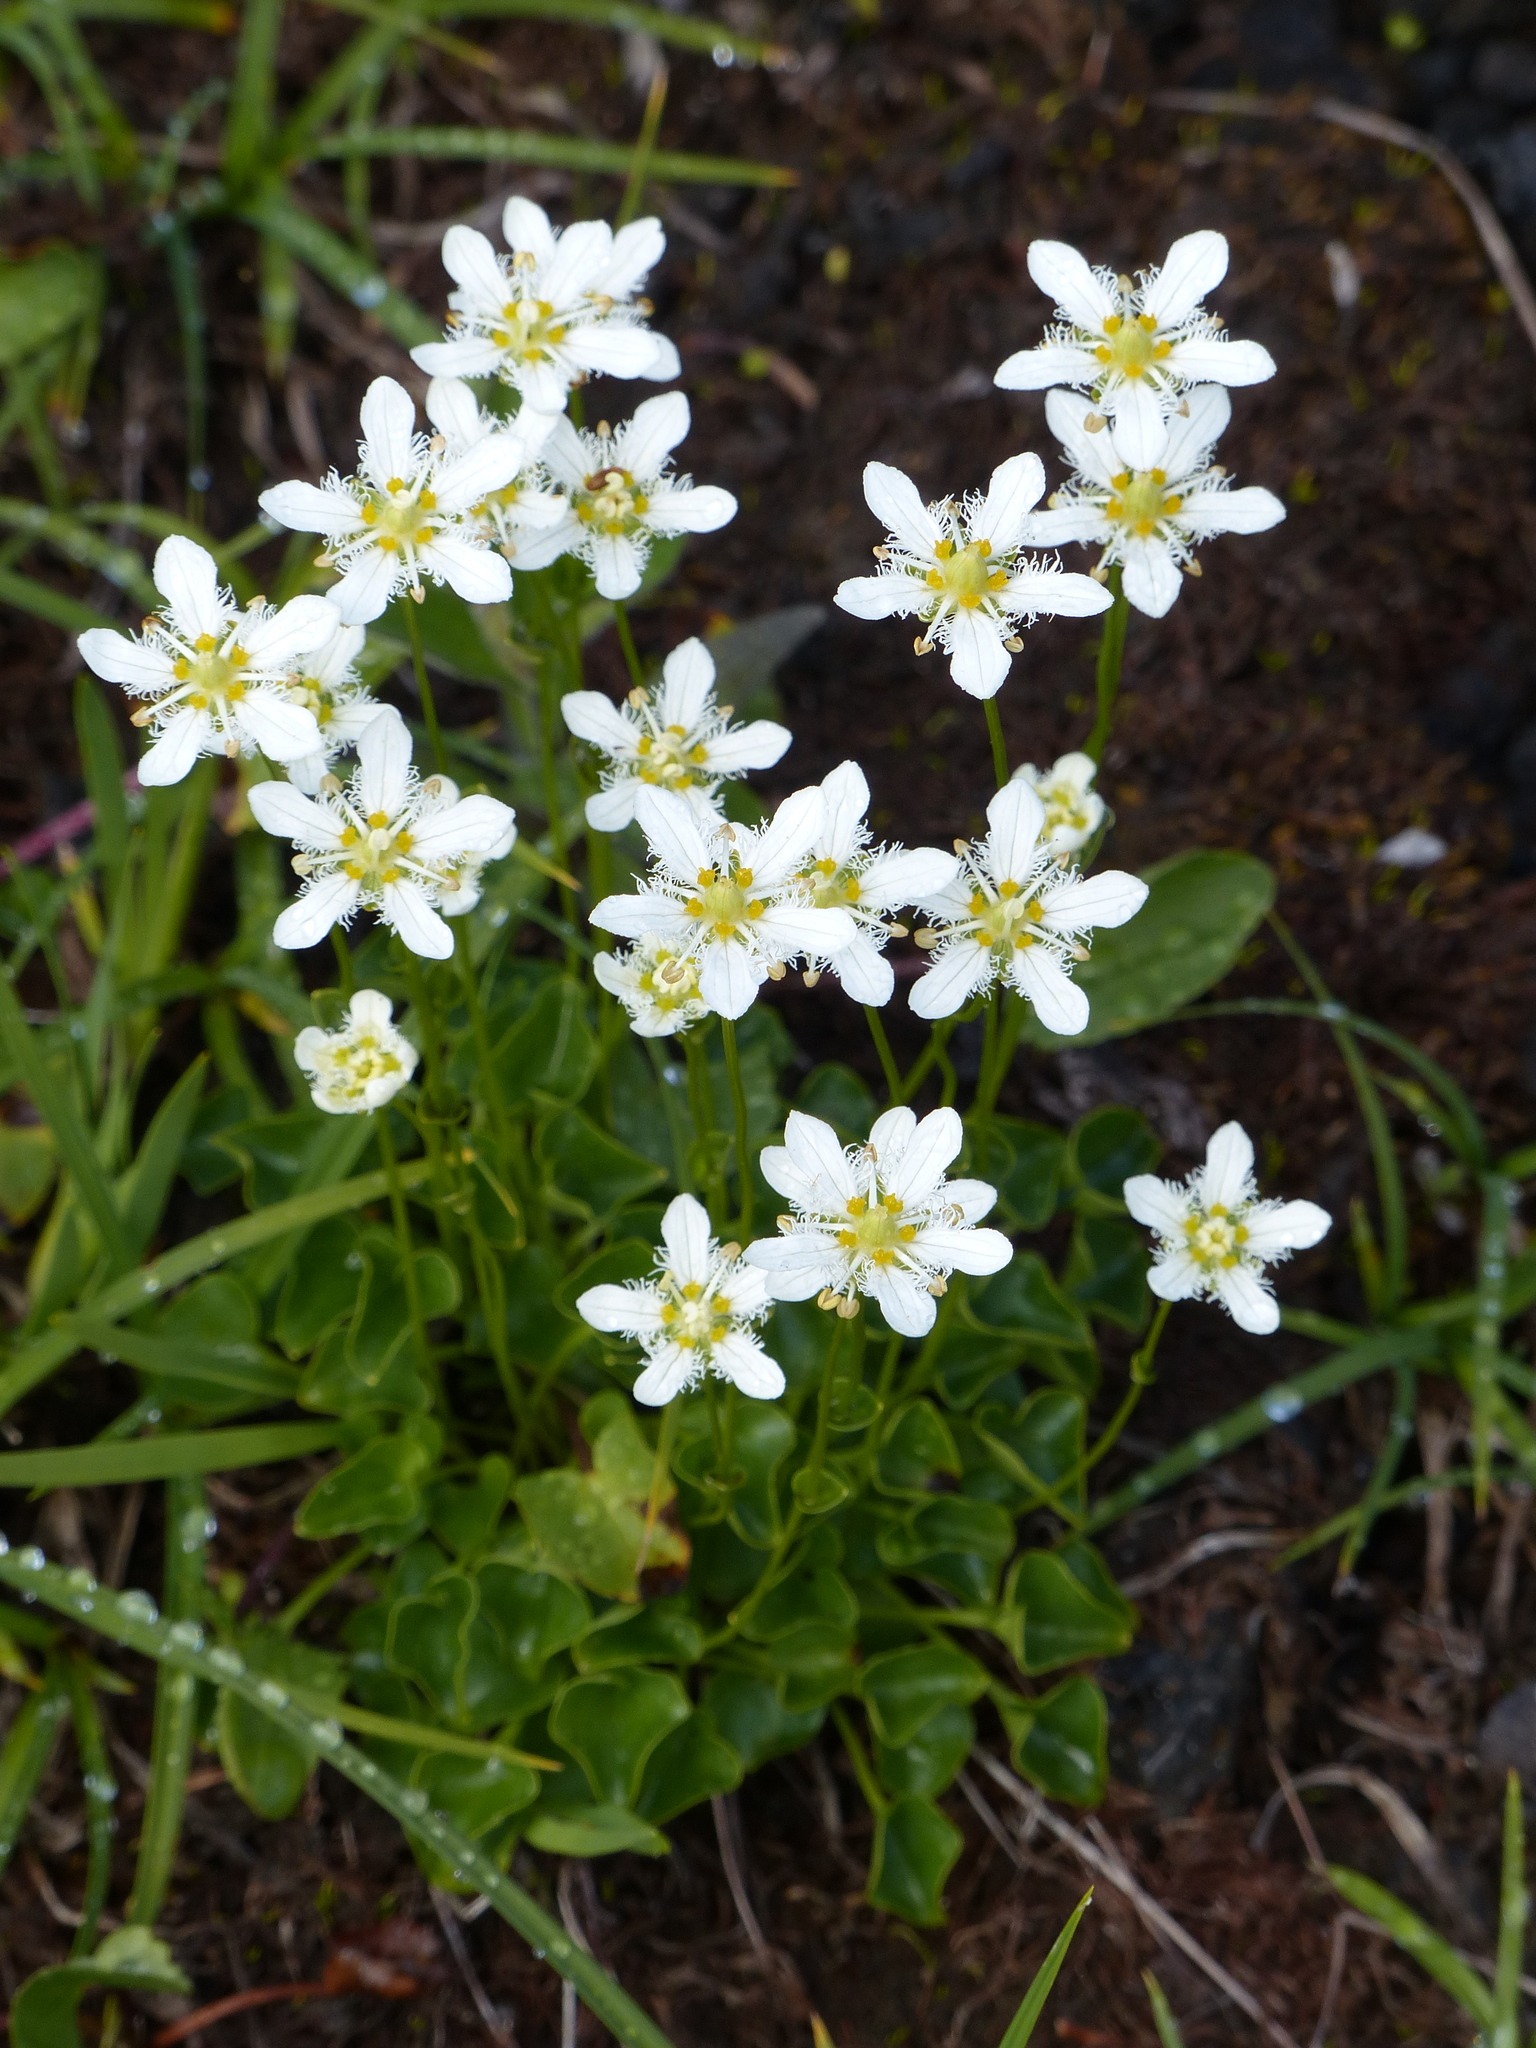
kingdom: Plantae
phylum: Tracheophyta
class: Magnoliopsida
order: Celastrales
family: Parnassiaceae
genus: Parnassia
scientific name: Parnassia fimbriata
